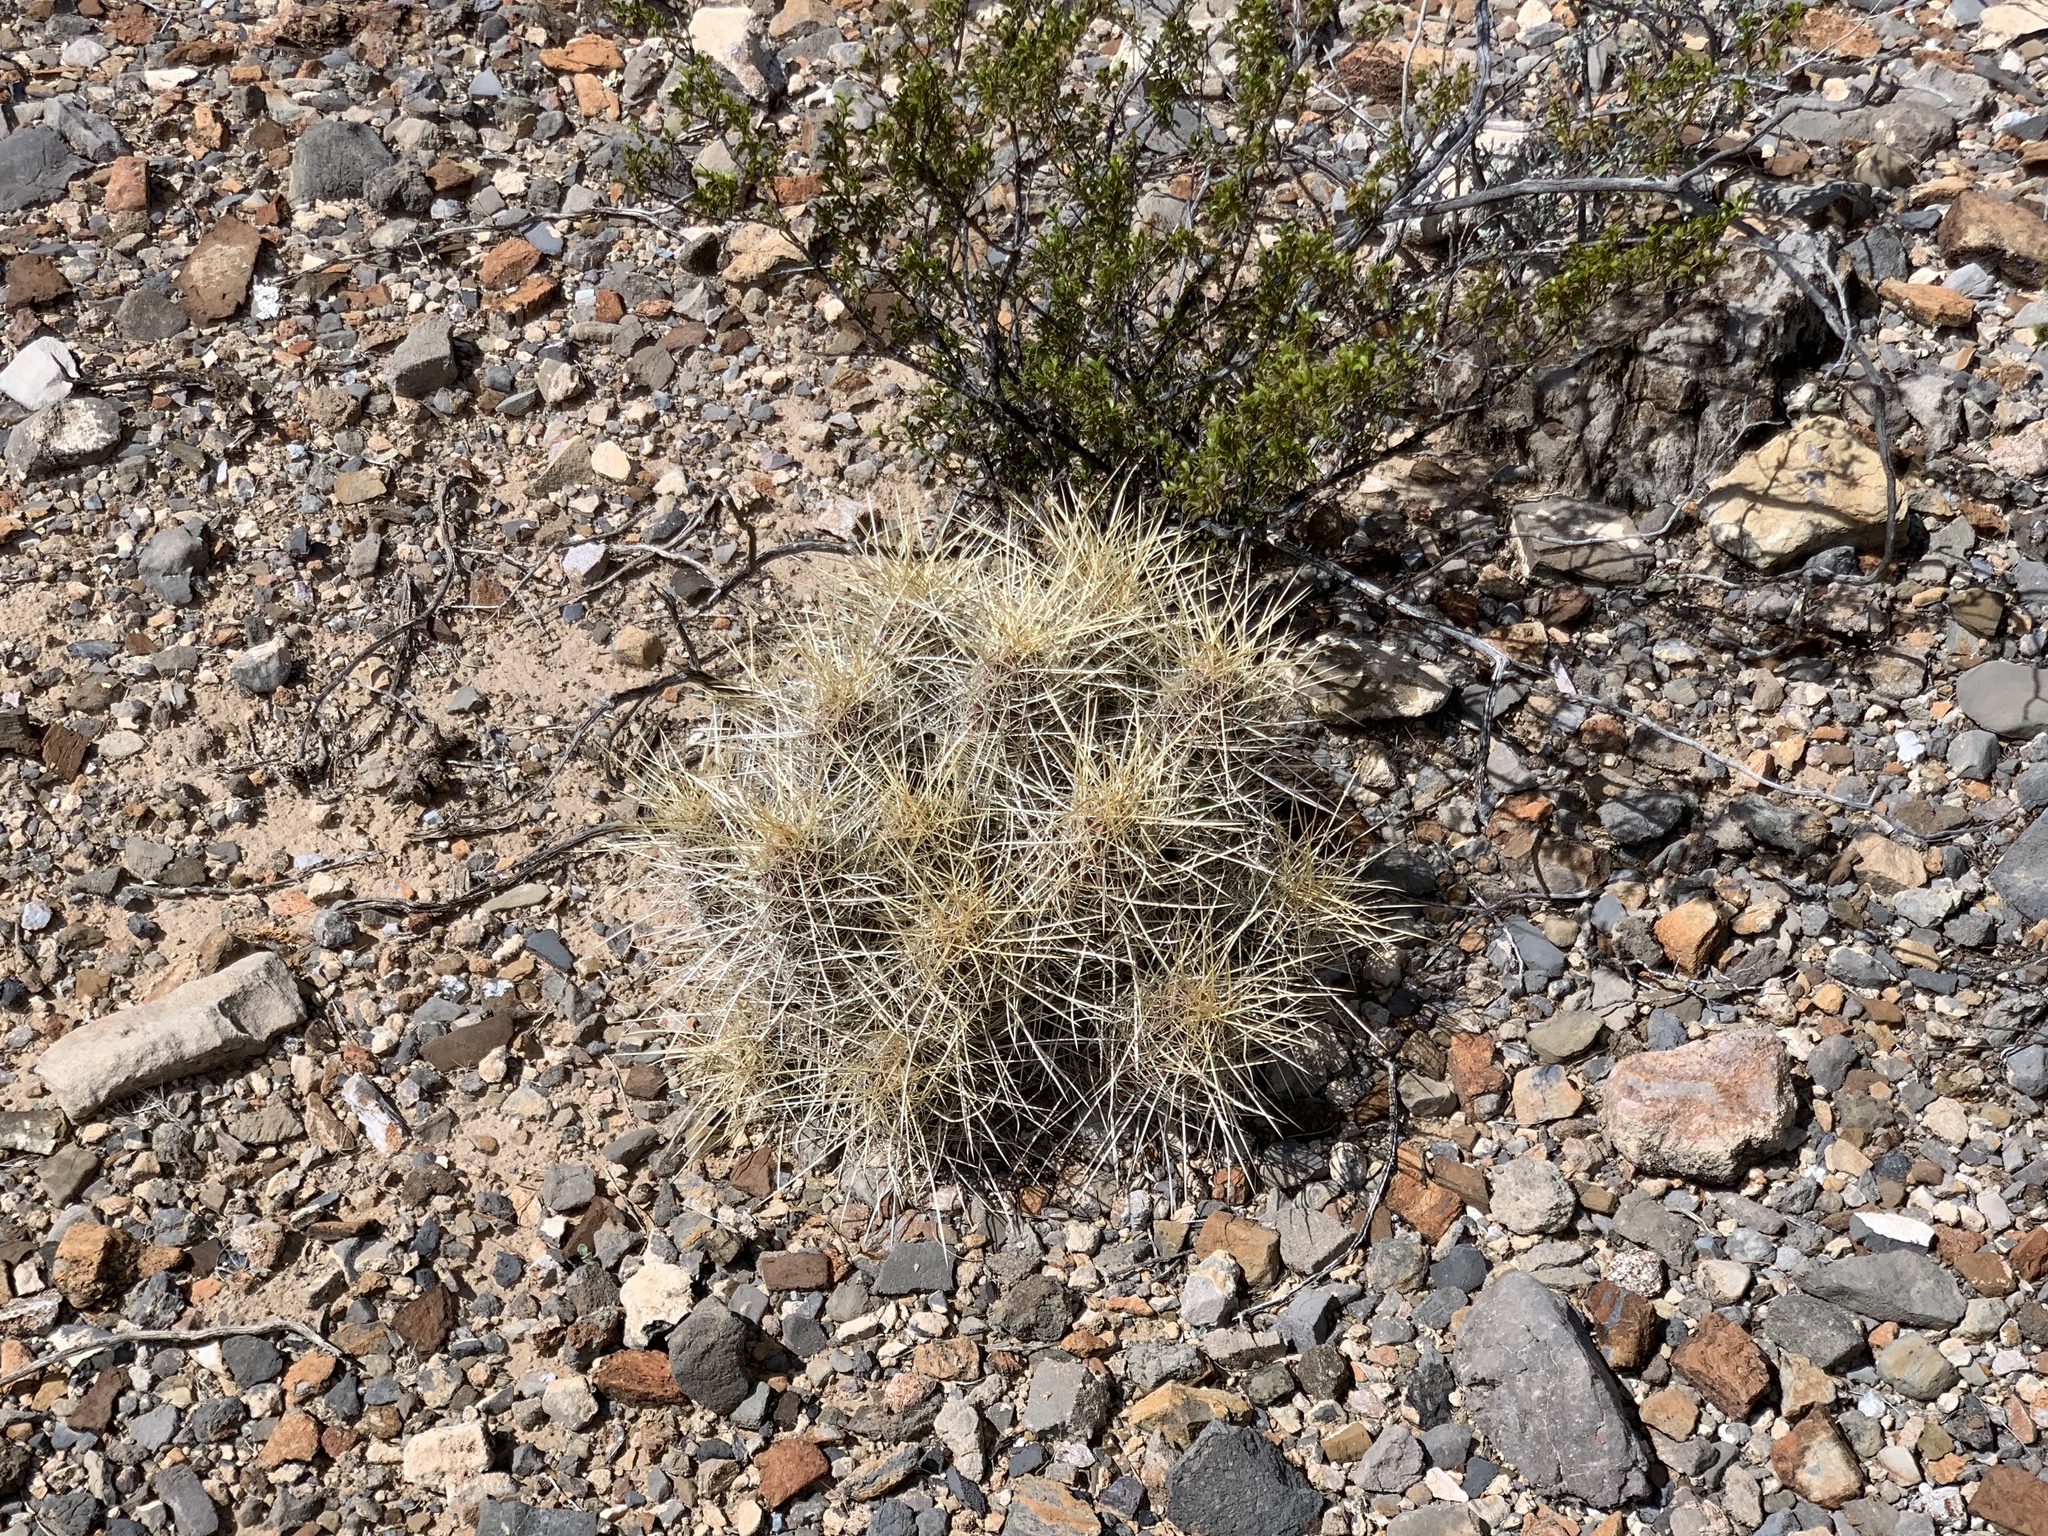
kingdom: Plantae
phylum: Tracheophyta
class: Magnoliopsida
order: Caryophyllales
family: Cactaceae
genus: Echinocereus
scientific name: Echinocereus stramineus
